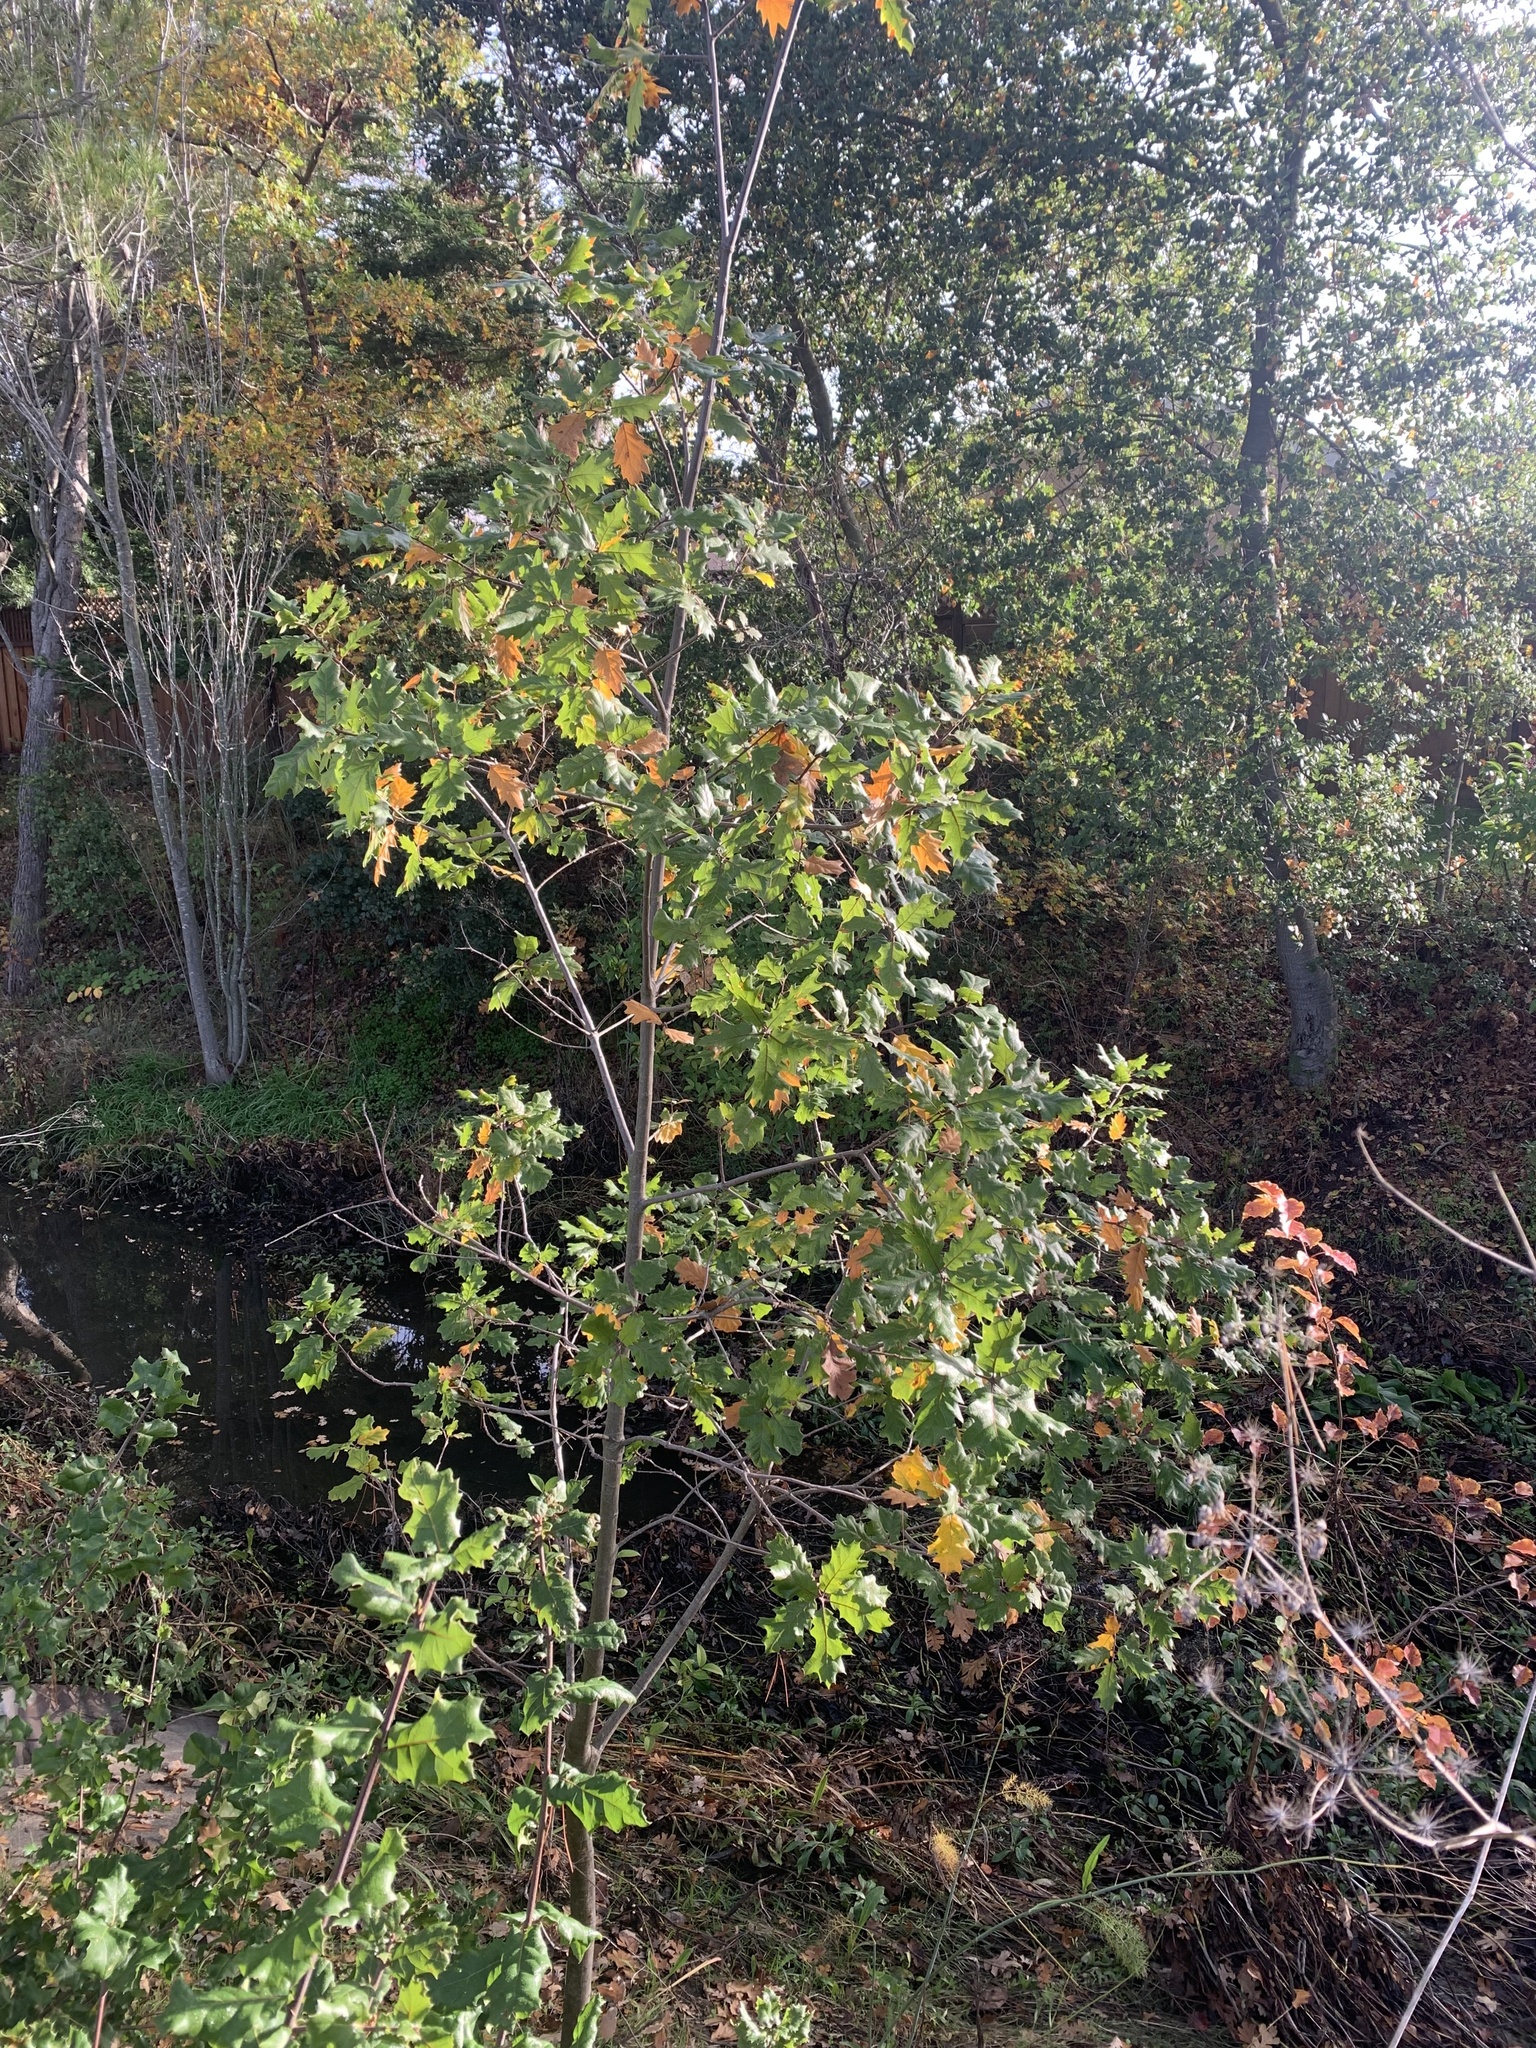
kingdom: Plantae
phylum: Tracheophyta
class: Magnoliopsida
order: Fagales
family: Fagaceae
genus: Quercus
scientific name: Quercus morehus
